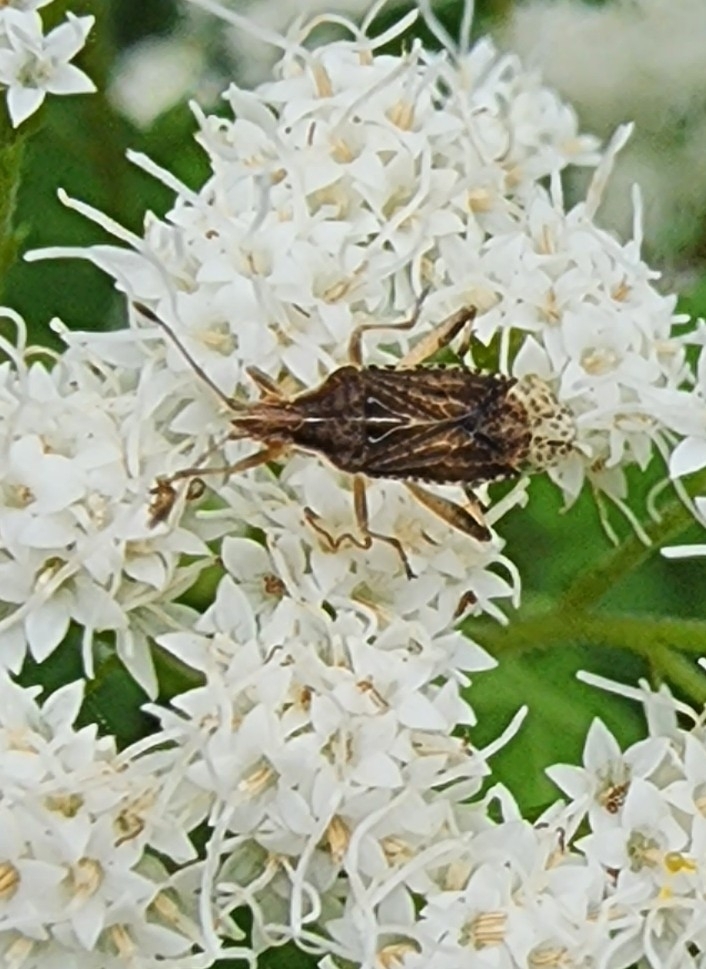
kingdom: Animalia
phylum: Arthropoda
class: Insecta
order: Hemiptera
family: Rhopalidae
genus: Harmostes
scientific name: Harmostes fraterculus
